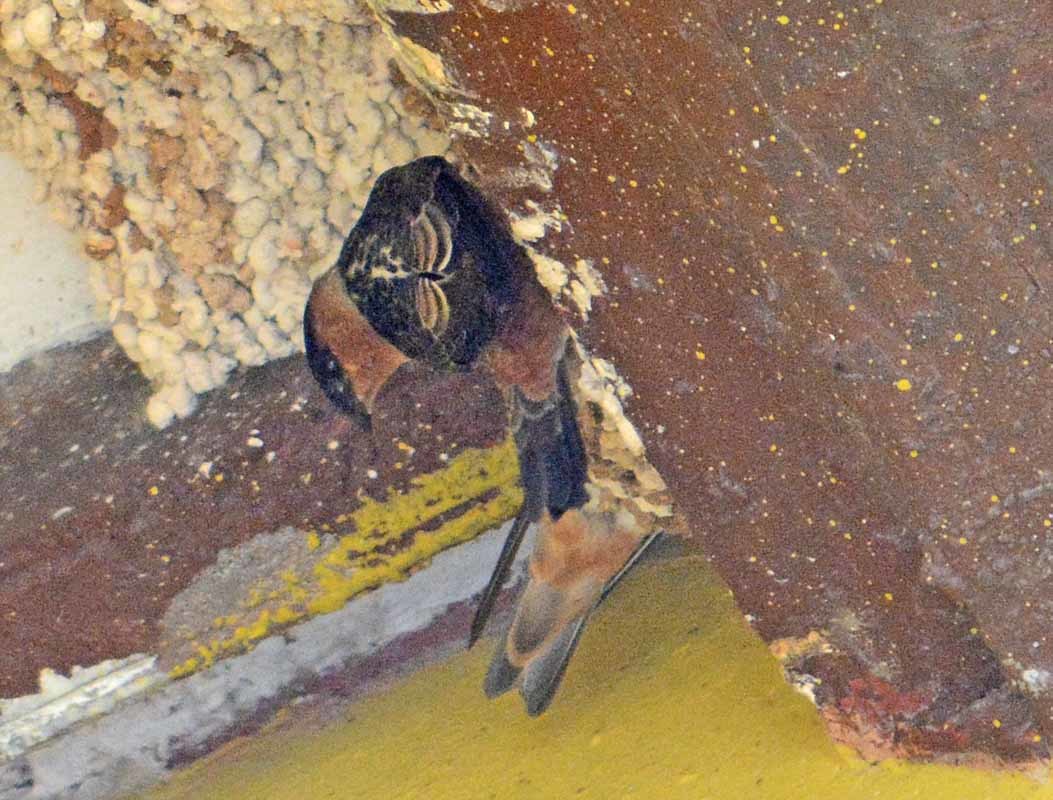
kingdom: Animalia
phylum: Chordata
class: Aves
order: Passeriformes
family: Hirundinidae
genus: Petrochelidon
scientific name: Petrochelidon fulva
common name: Cave swallow
